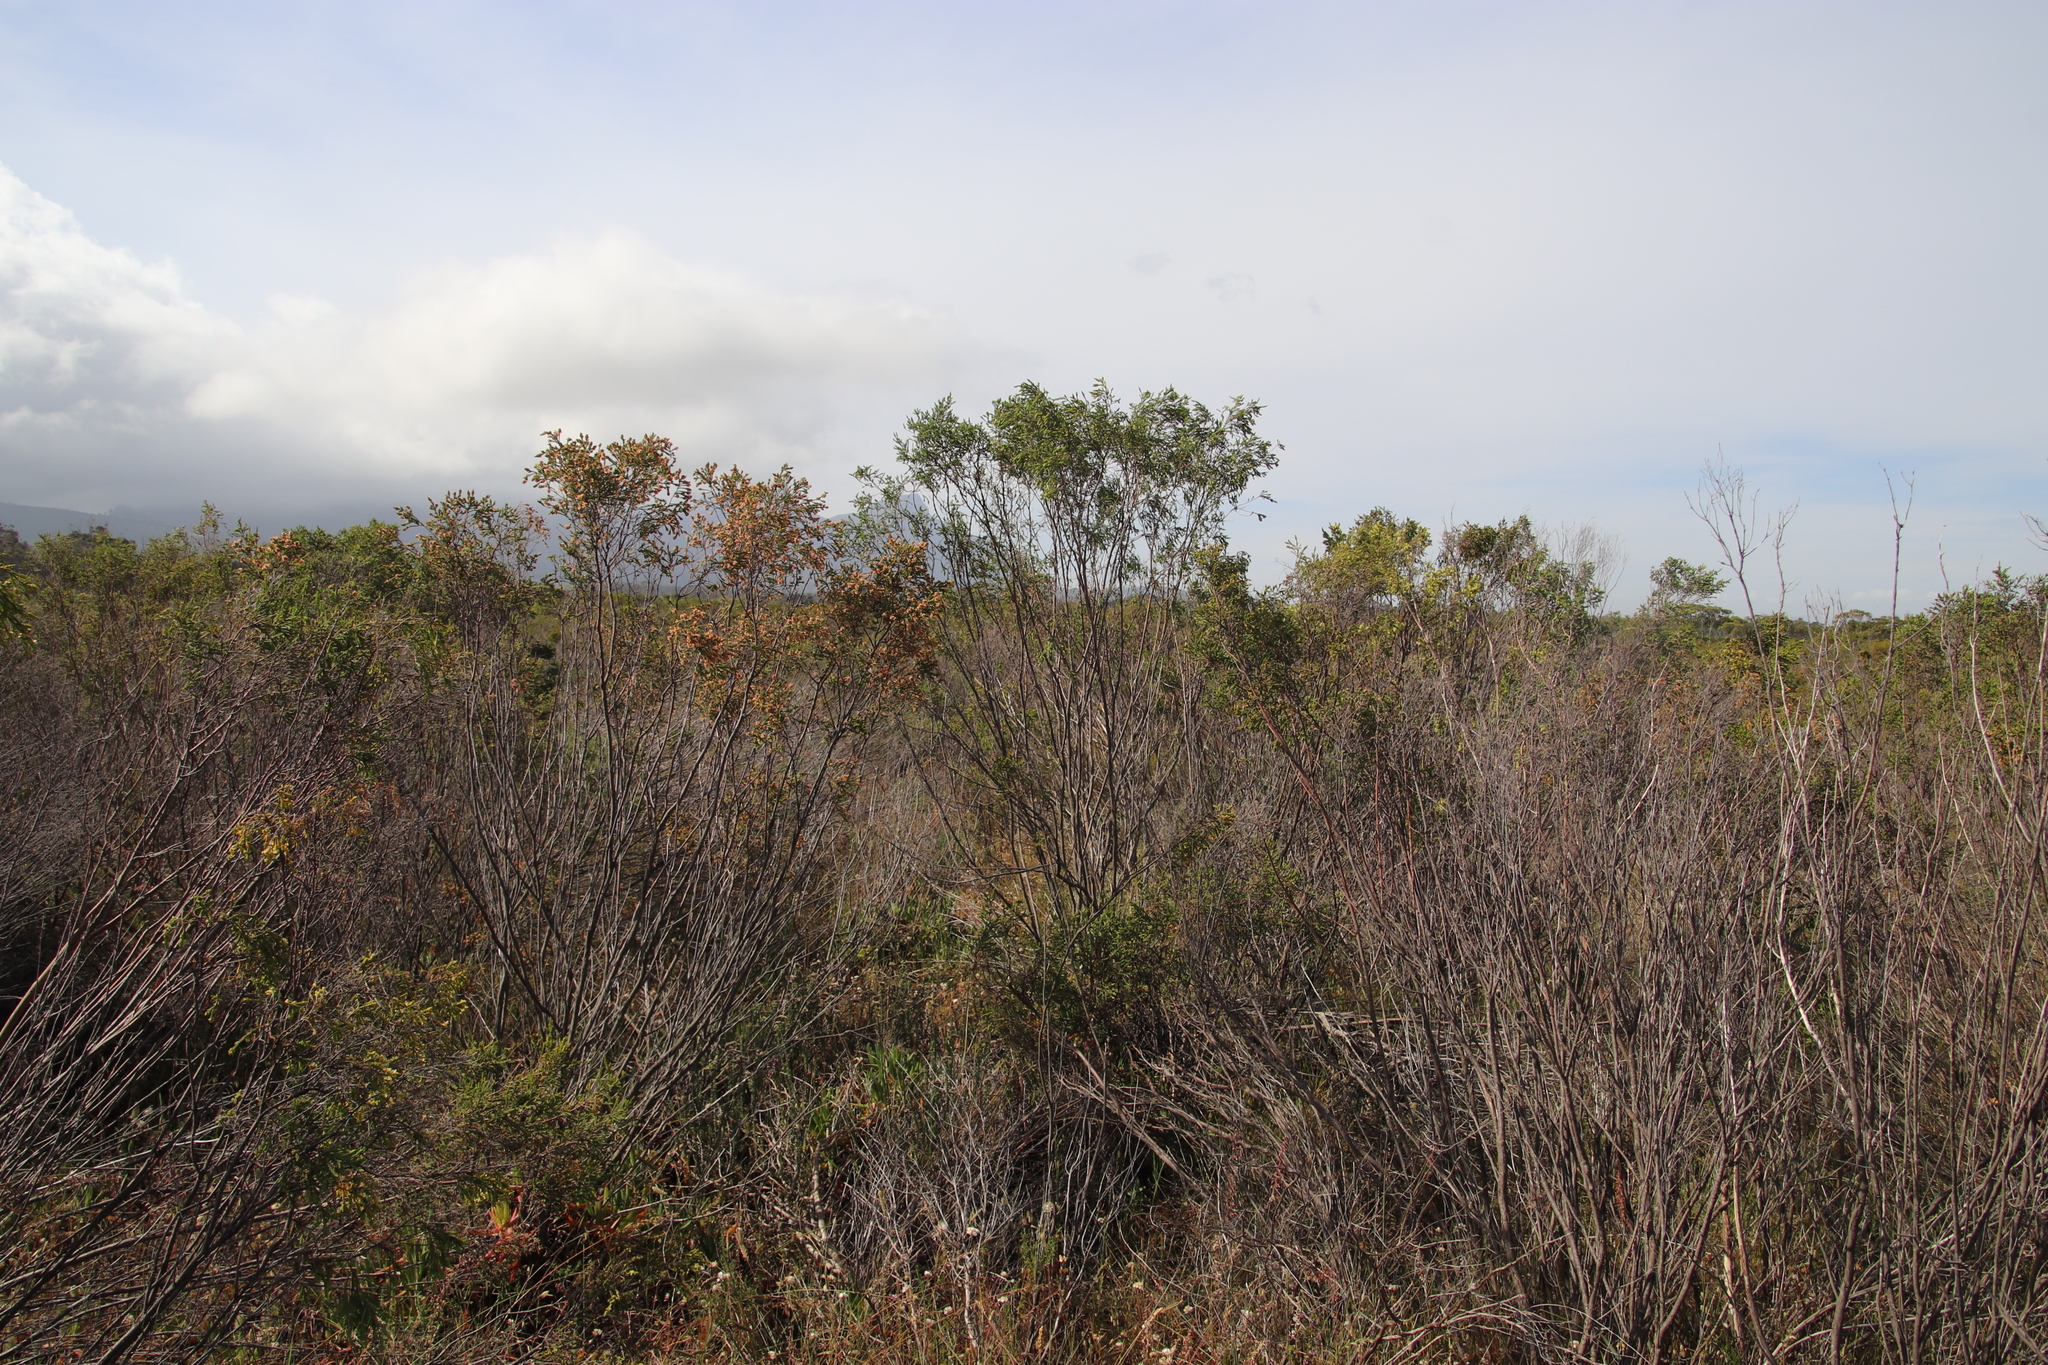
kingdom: Plantae
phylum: Tracheophyta
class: Magnoliopsida
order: Malvales
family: Thymelaeaceae
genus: Passerina
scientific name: Passerina corymbosa
